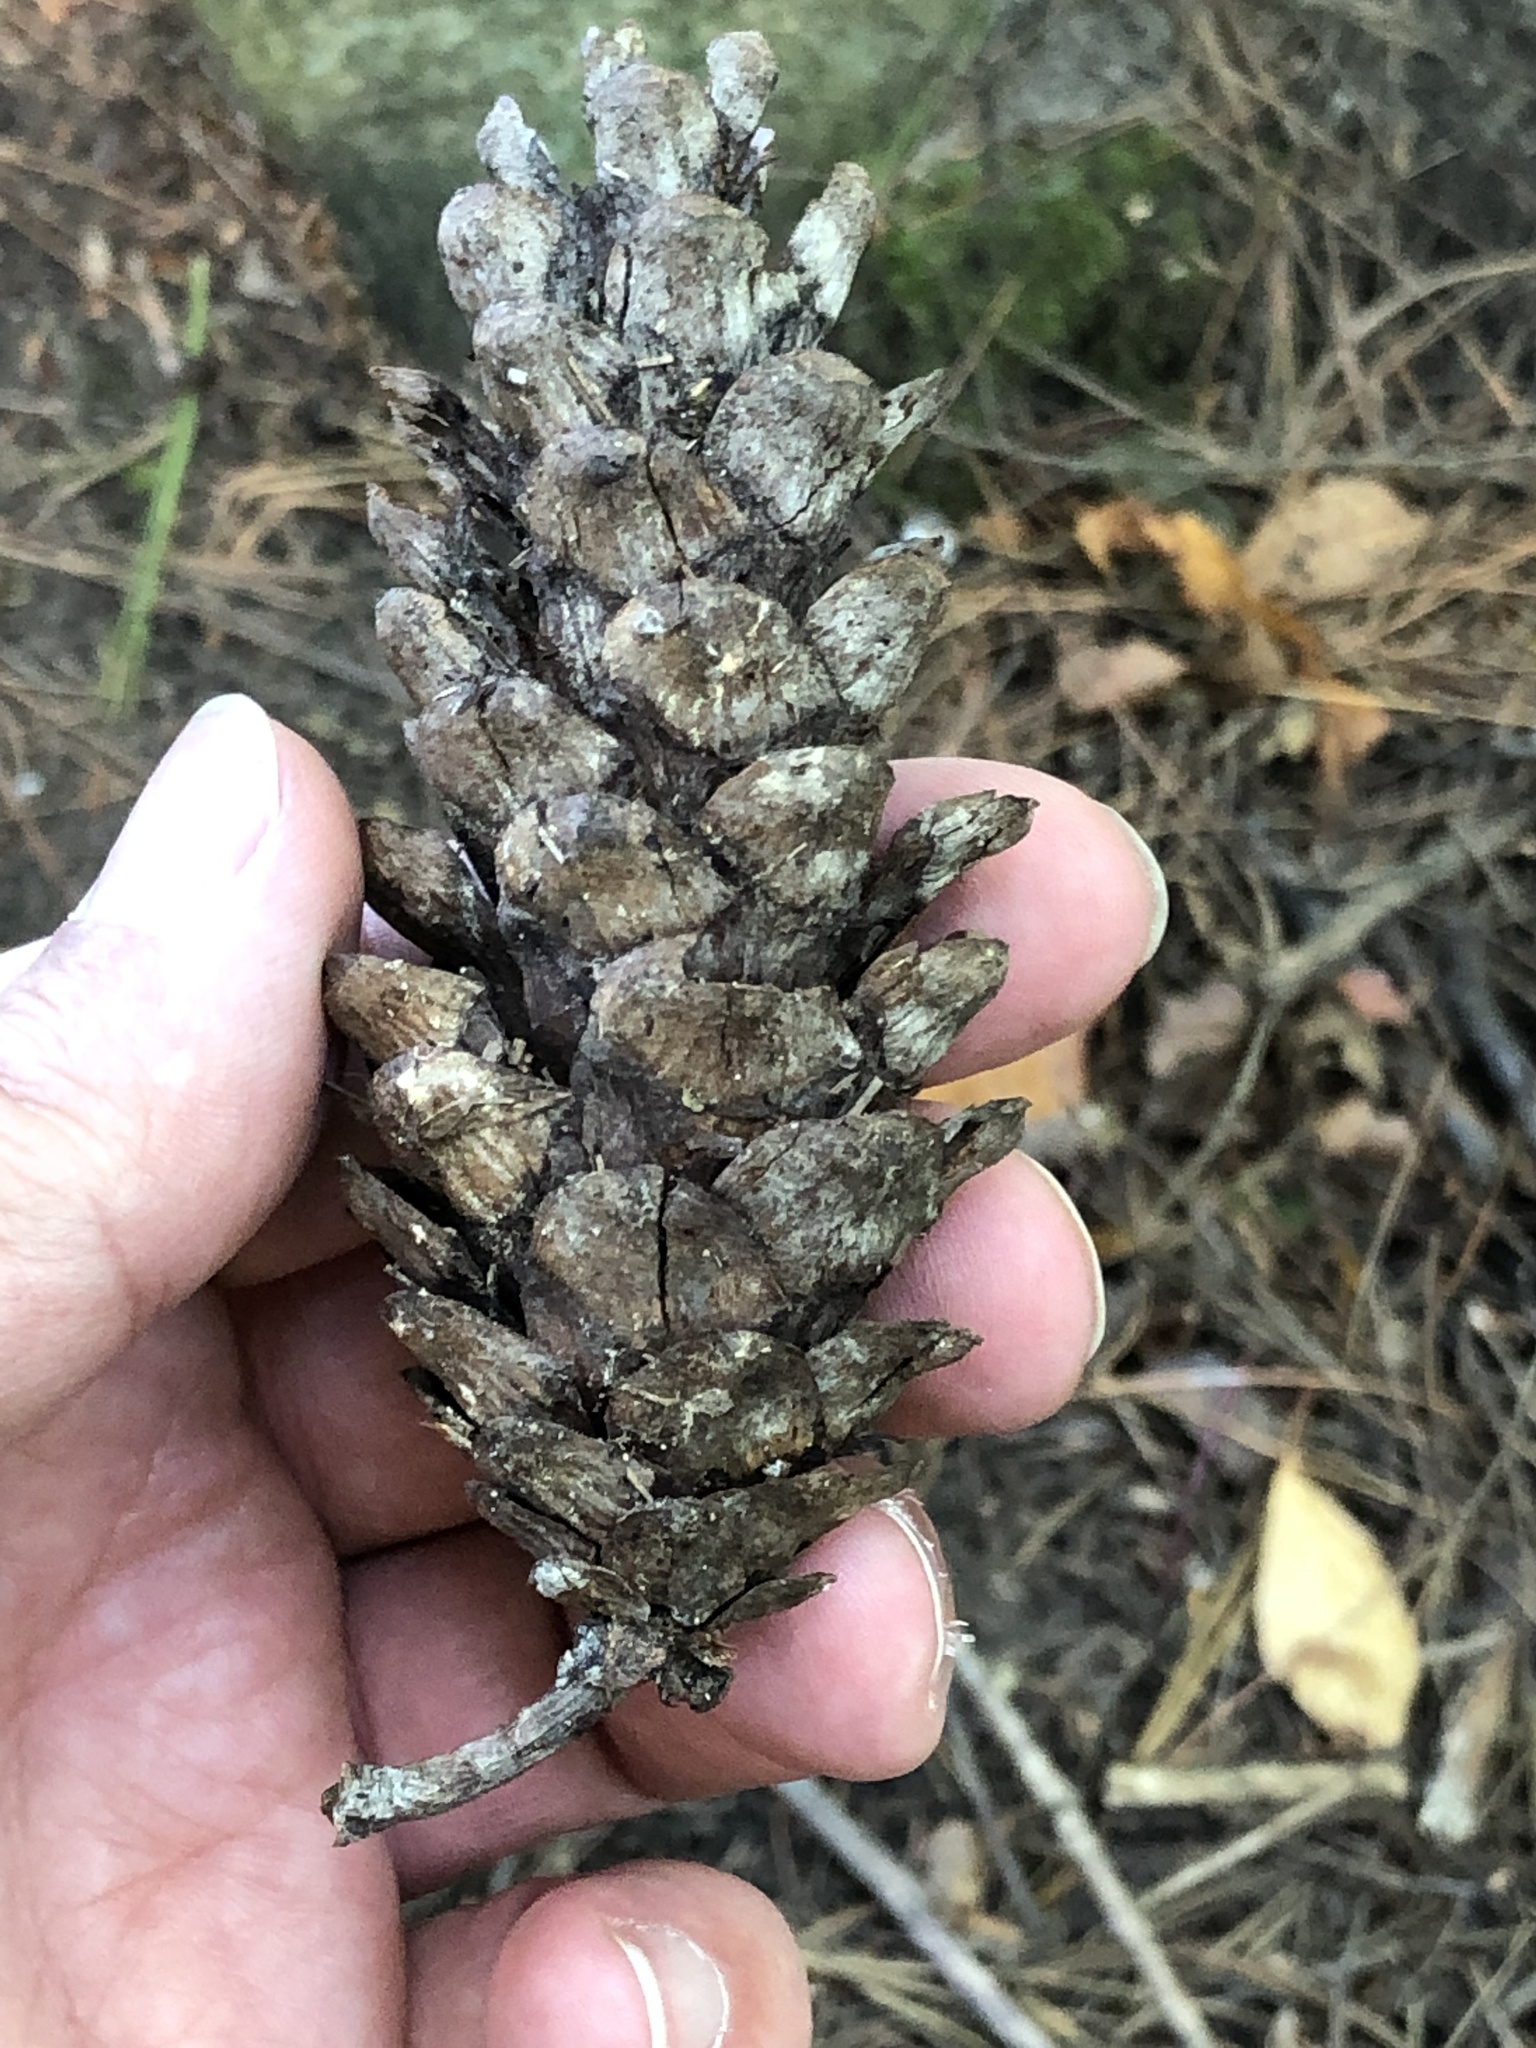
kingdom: Plantae
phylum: Tracheophyta
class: Pinopsida
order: Pinales
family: Pinaceae
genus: Pinus
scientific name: Pinus strobus
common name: Weymouth pine
